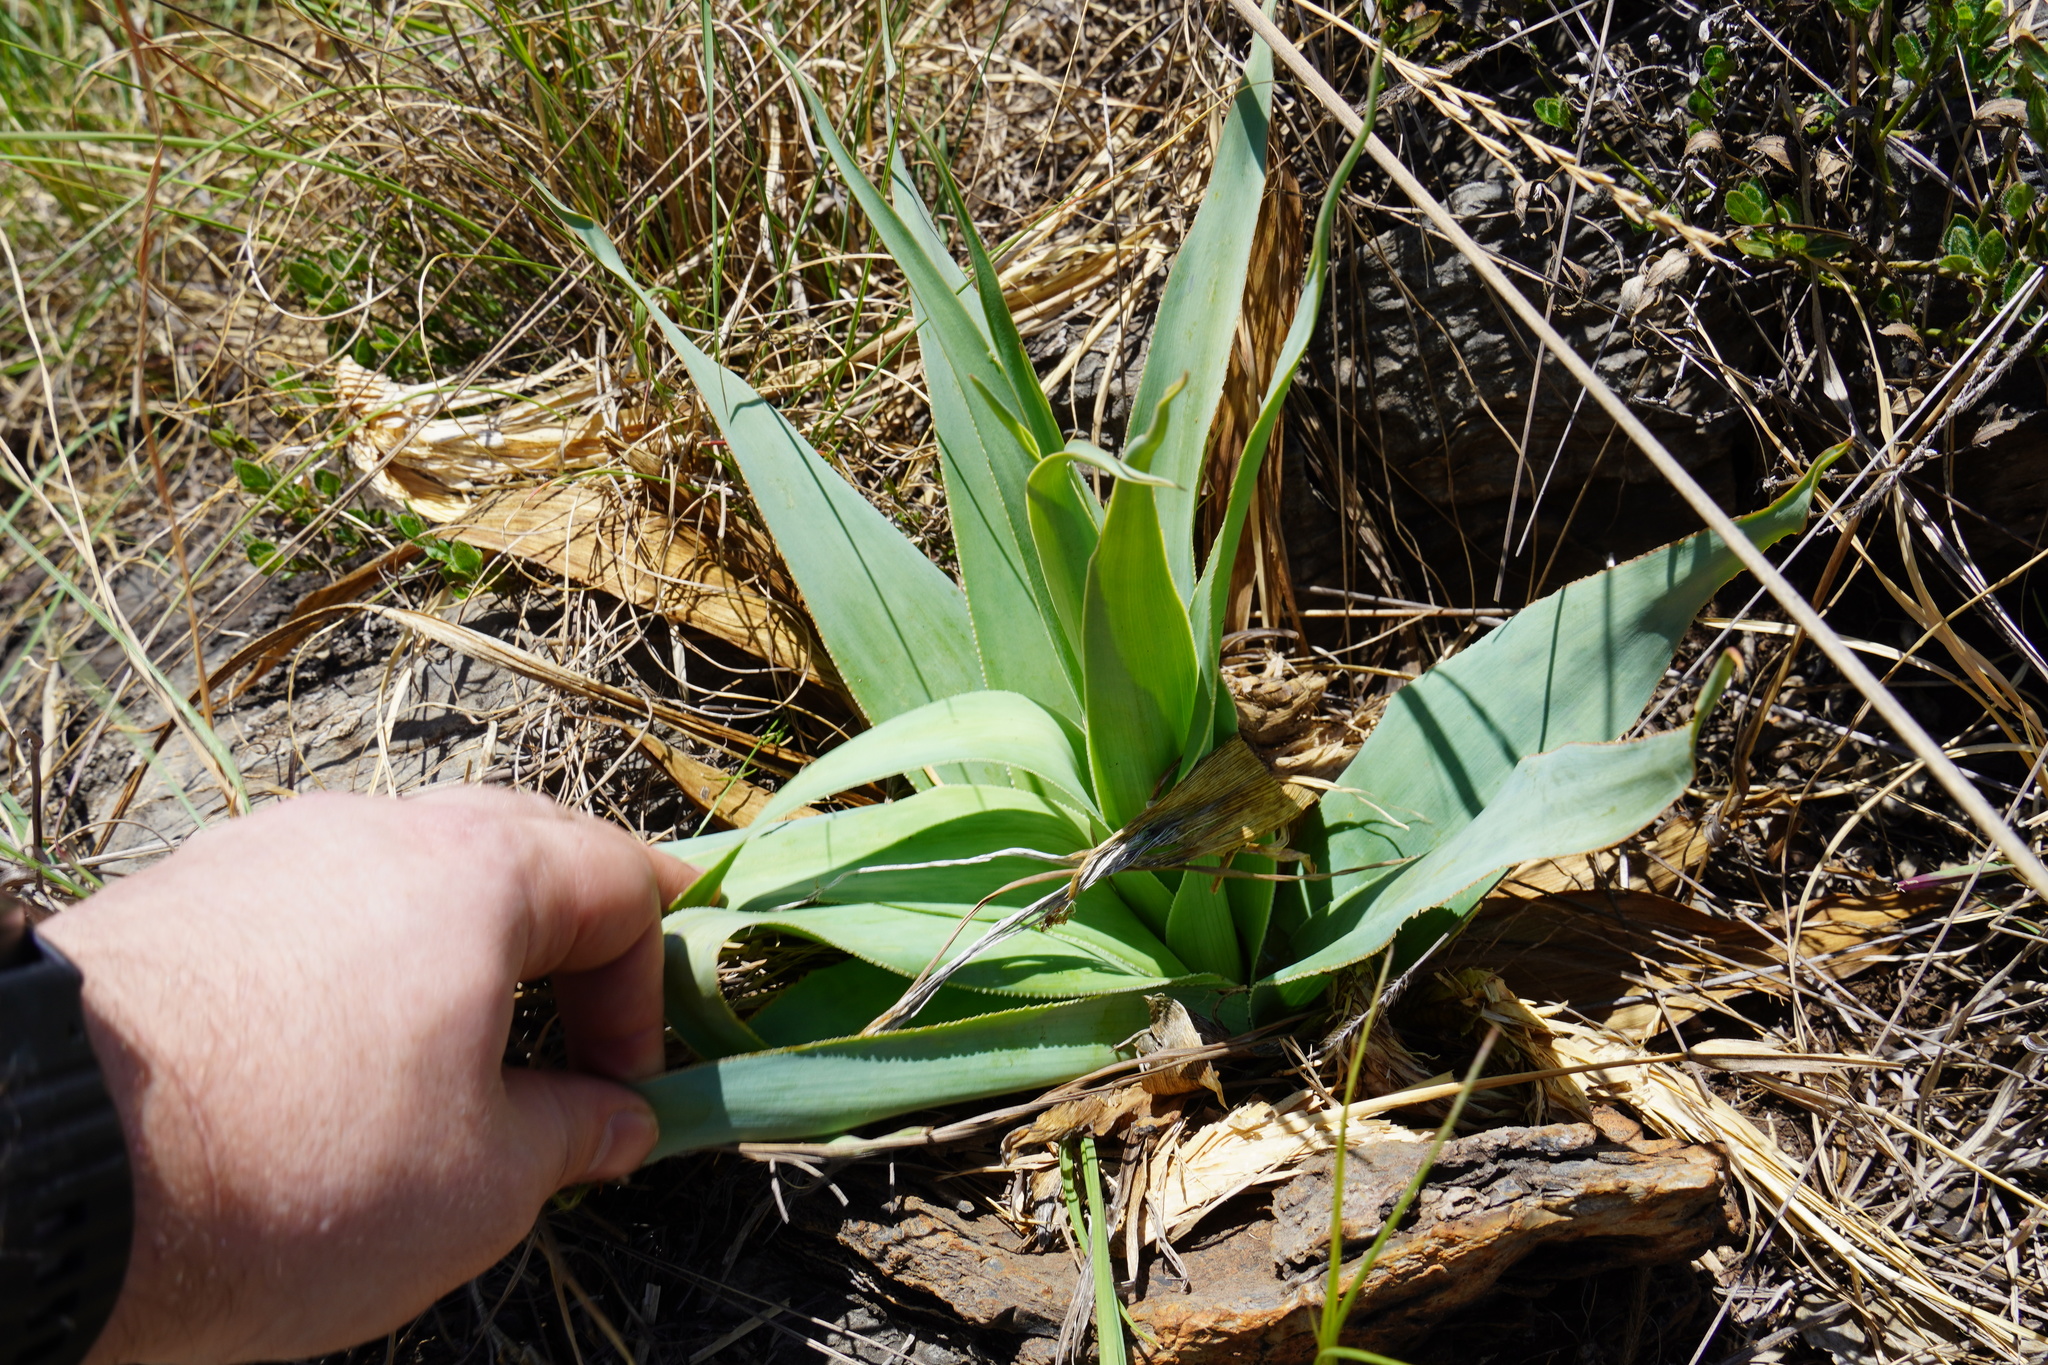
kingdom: Plantae
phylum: Tracheophyta
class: Liliopsida
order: Asparagales
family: Asparagaceae
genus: Ledebouria
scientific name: Ledebouria marginata
